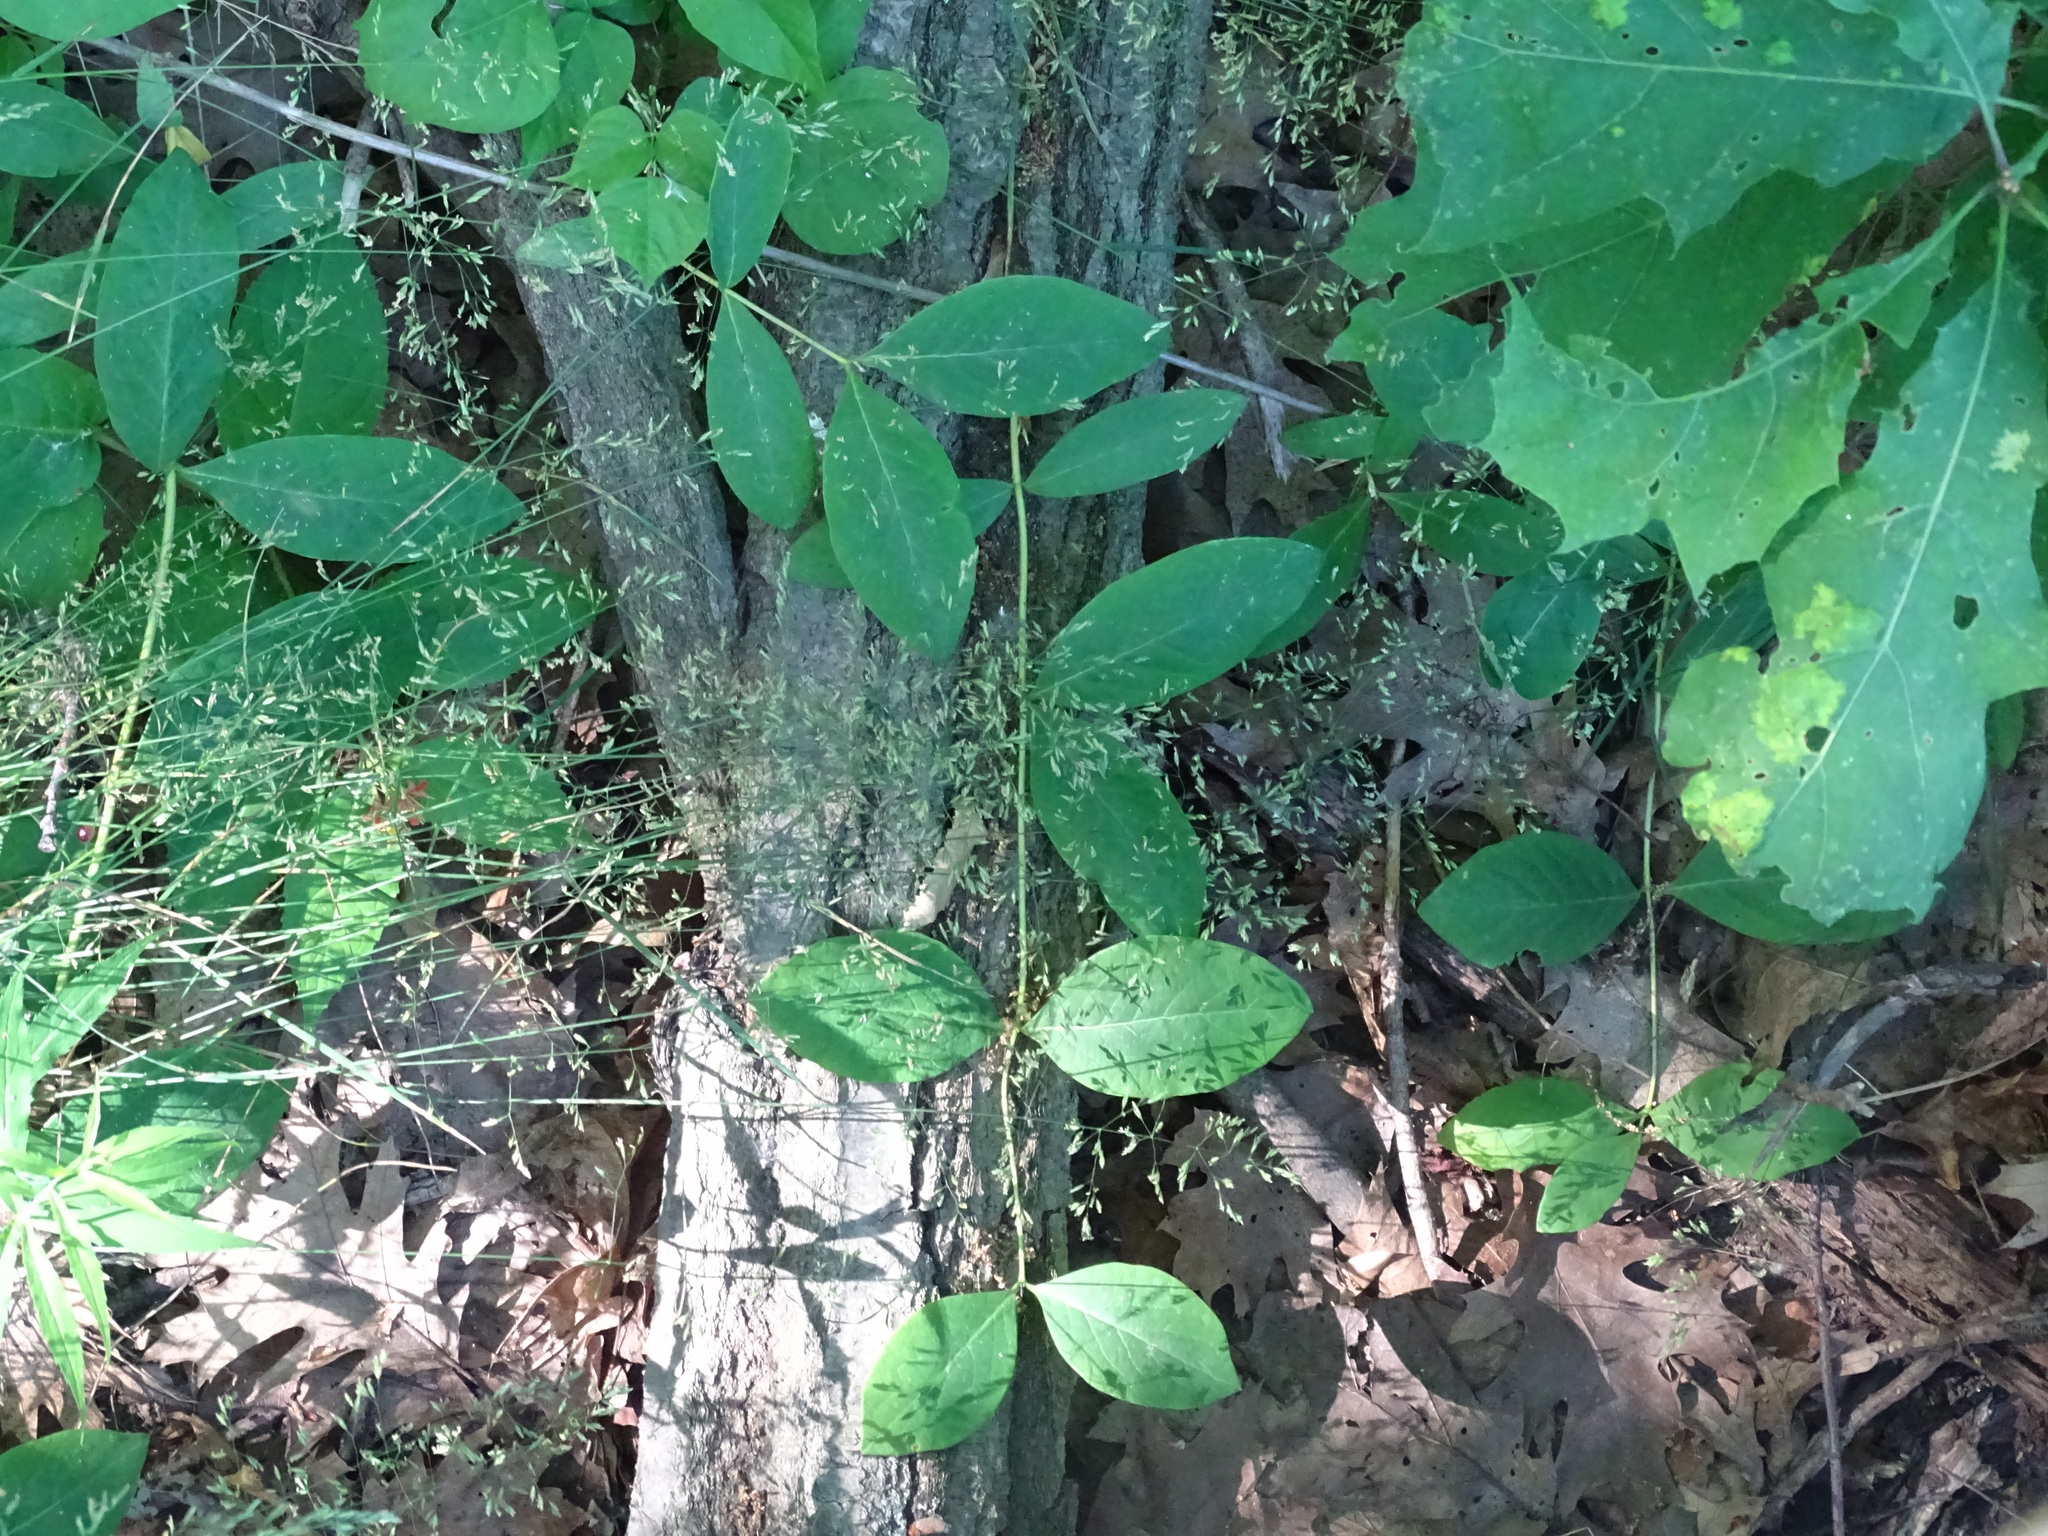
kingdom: Plantae
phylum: Tracheophyta
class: Magnoliopsida
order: Dipsacales
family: Caprifoliaceae
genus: Lonicera
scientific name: Lonicera dioica
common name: Limber honeysuckle
